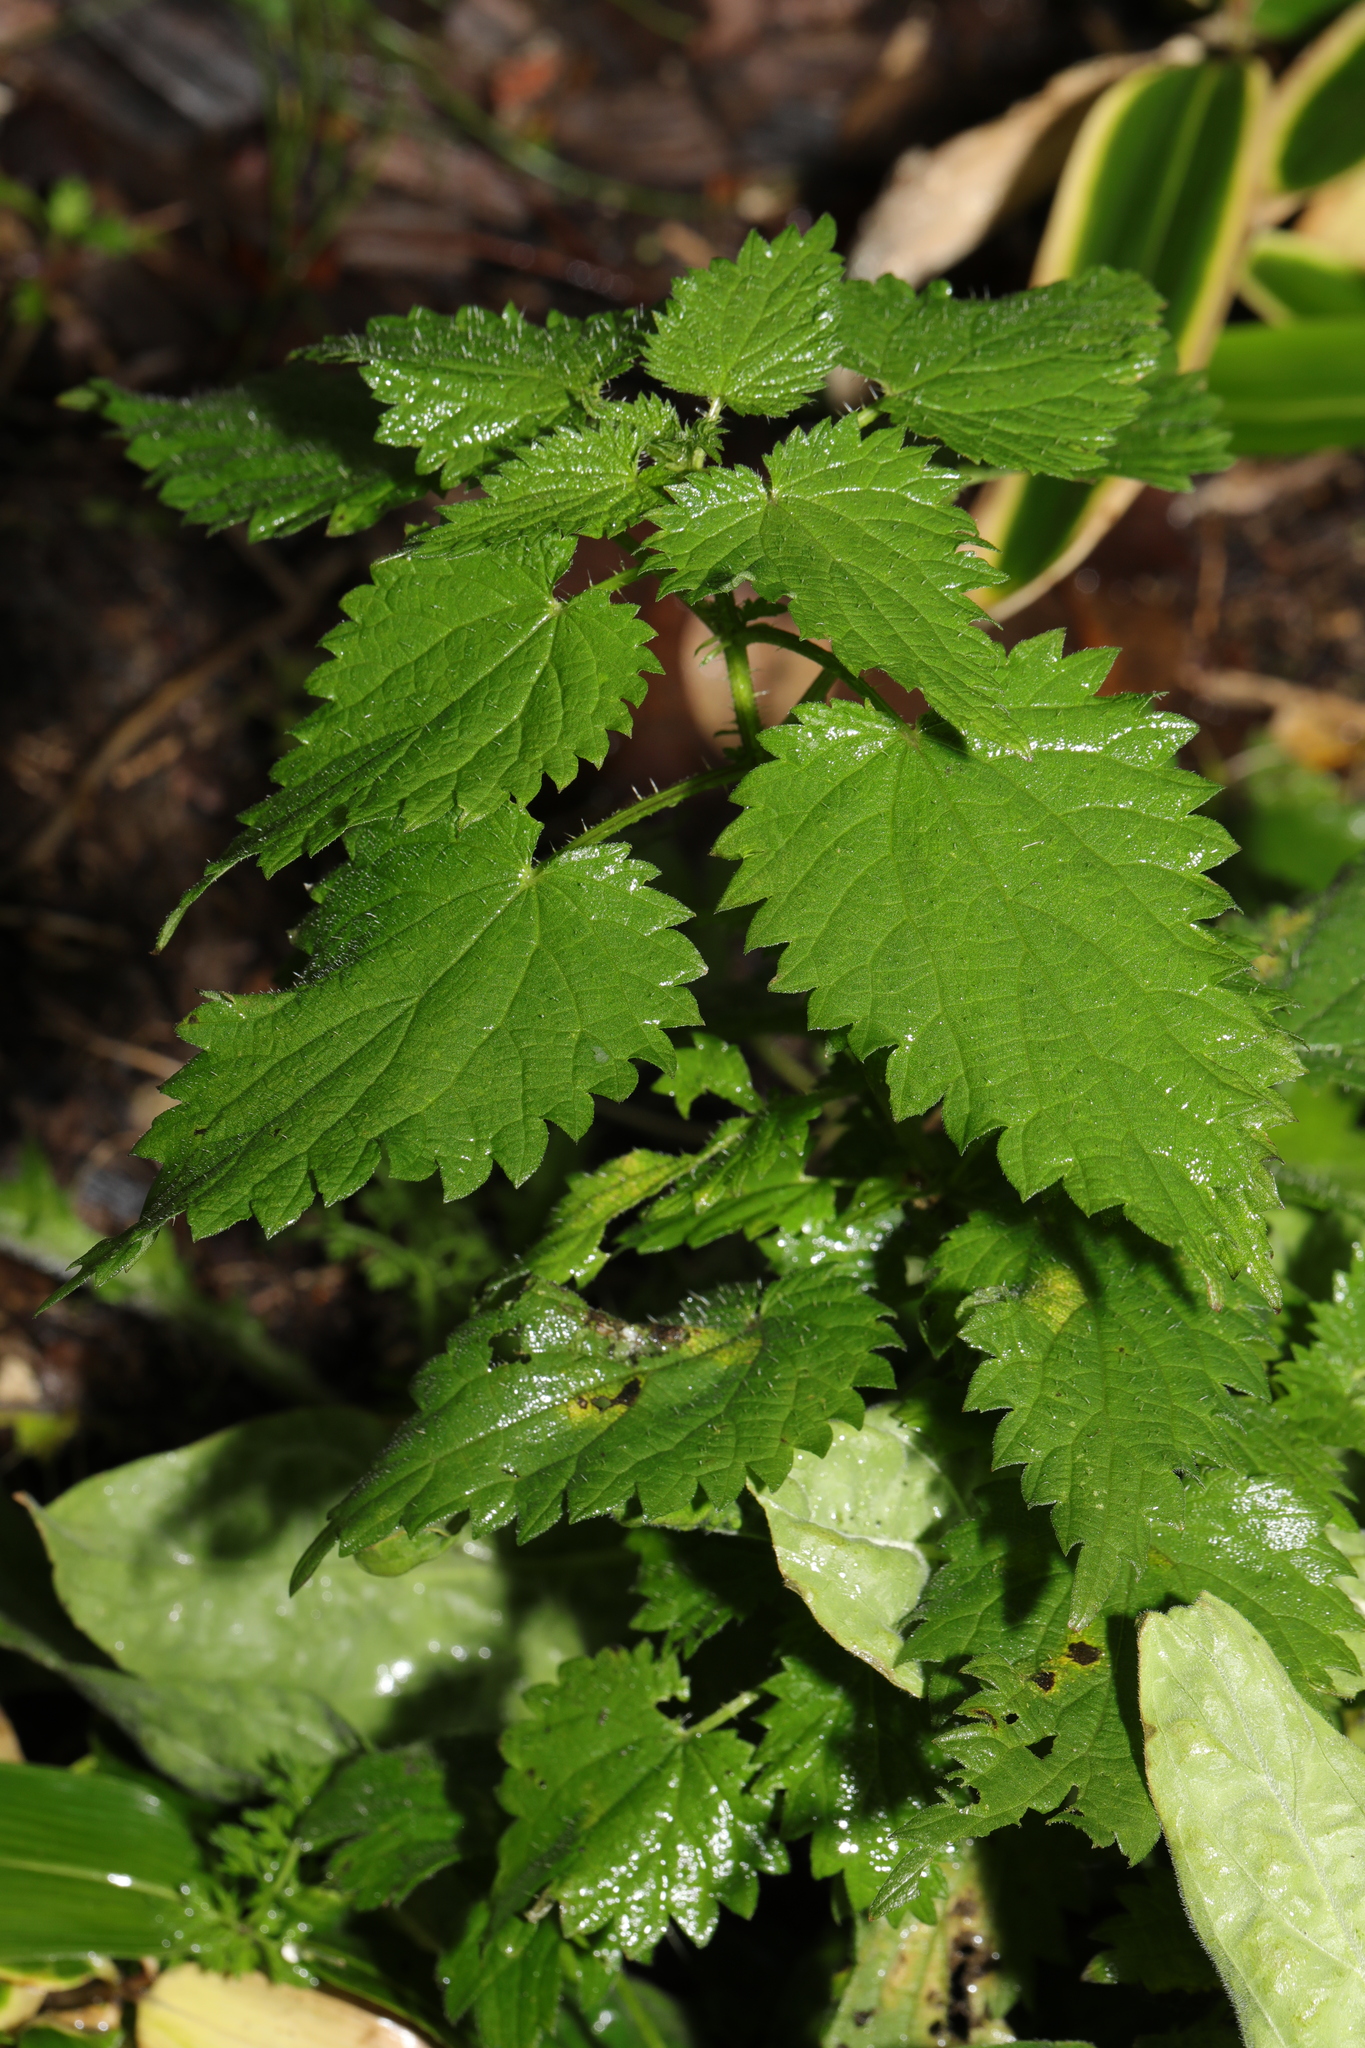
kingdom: Plantae
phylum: Tracheophyta
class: Magnoliopsida
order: Rosales
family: Urticaceae
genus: Urtica
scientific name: Urtica dioica
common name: Common nettle
